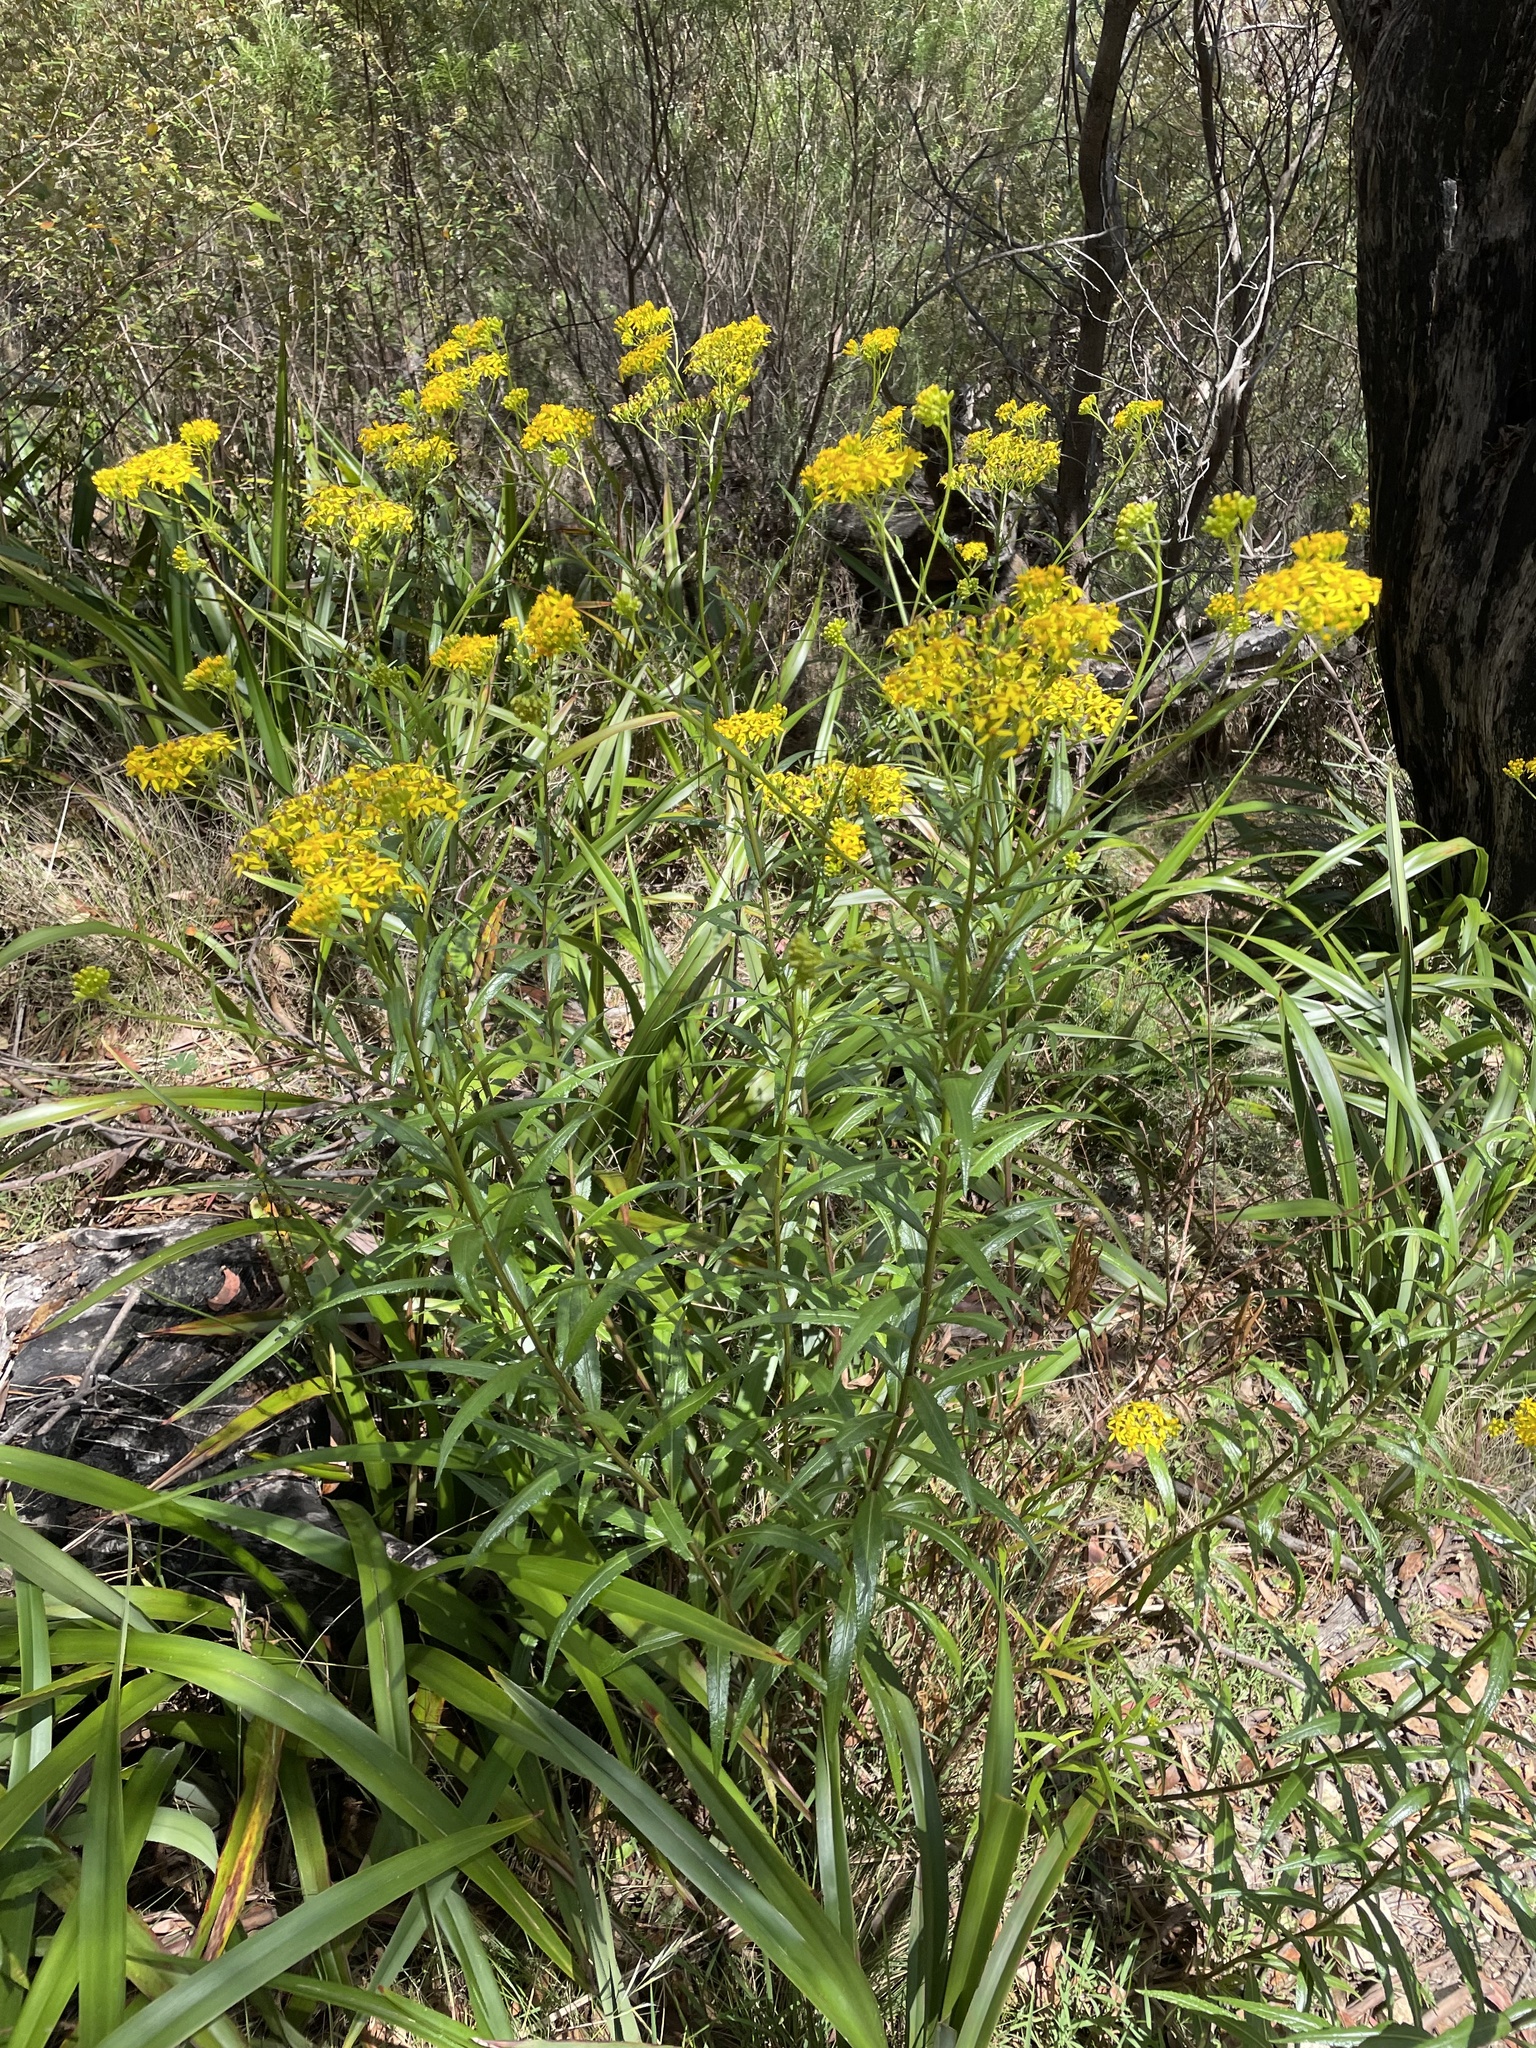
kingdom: Plantae
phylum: Tracheophyta
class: Magnoliopsida
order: Asterales
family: Asteraceae
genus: Senecio
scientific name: Senecio linearifolius
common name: Fireweed groundsel
